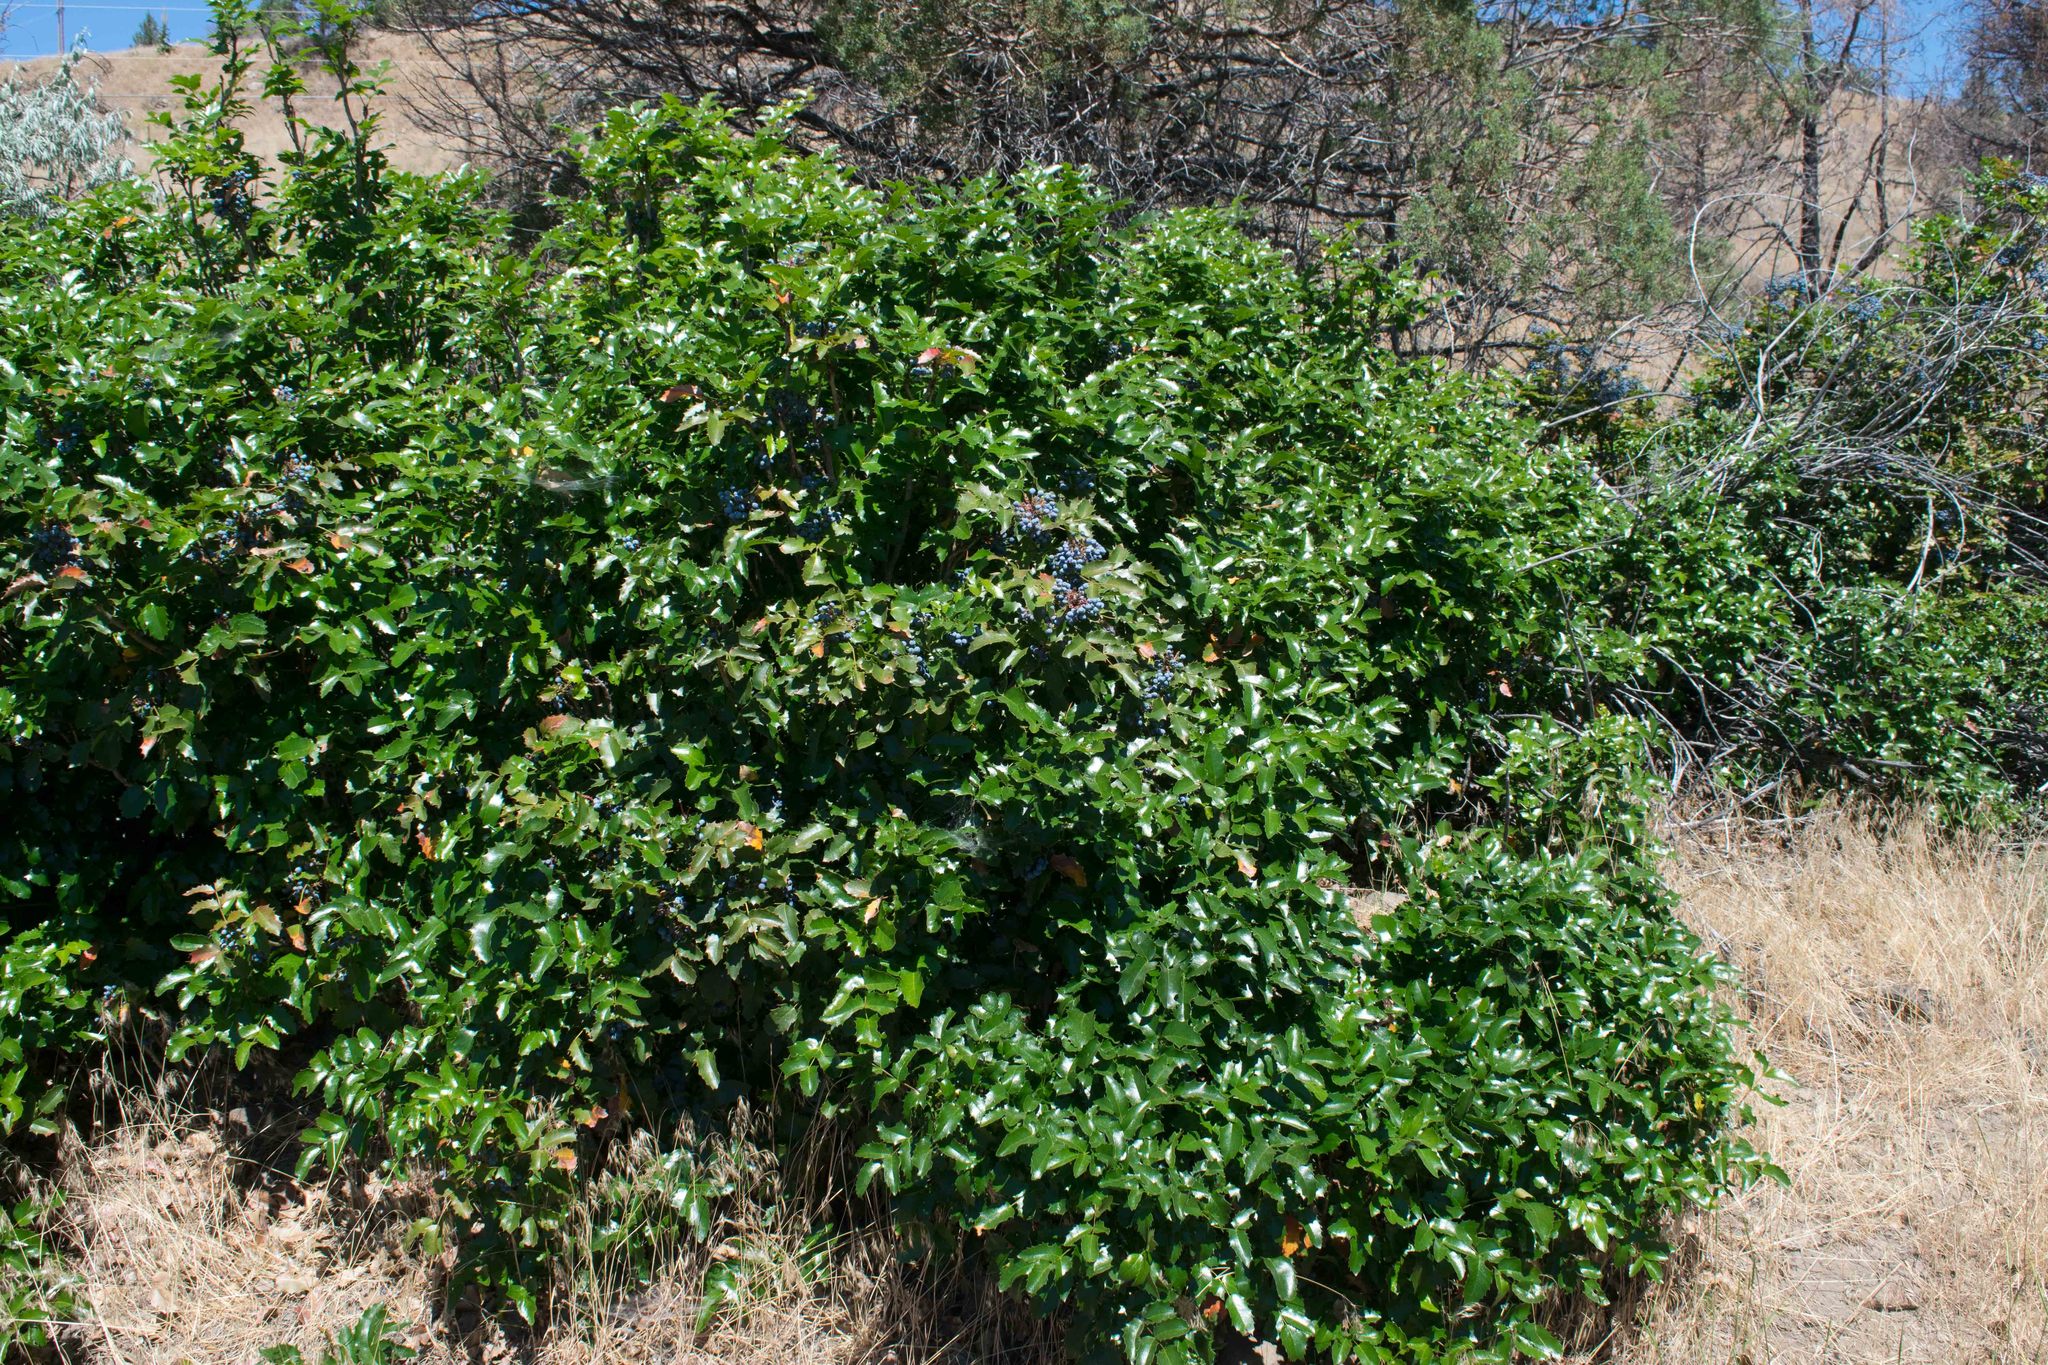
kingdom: Plantae
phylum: Tracheophyta
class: Magnoliopsida
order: Ranunculales
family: Berberidaceae
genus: Mahonia
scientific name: Mahonia aquifolium
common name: Oregon-grape
